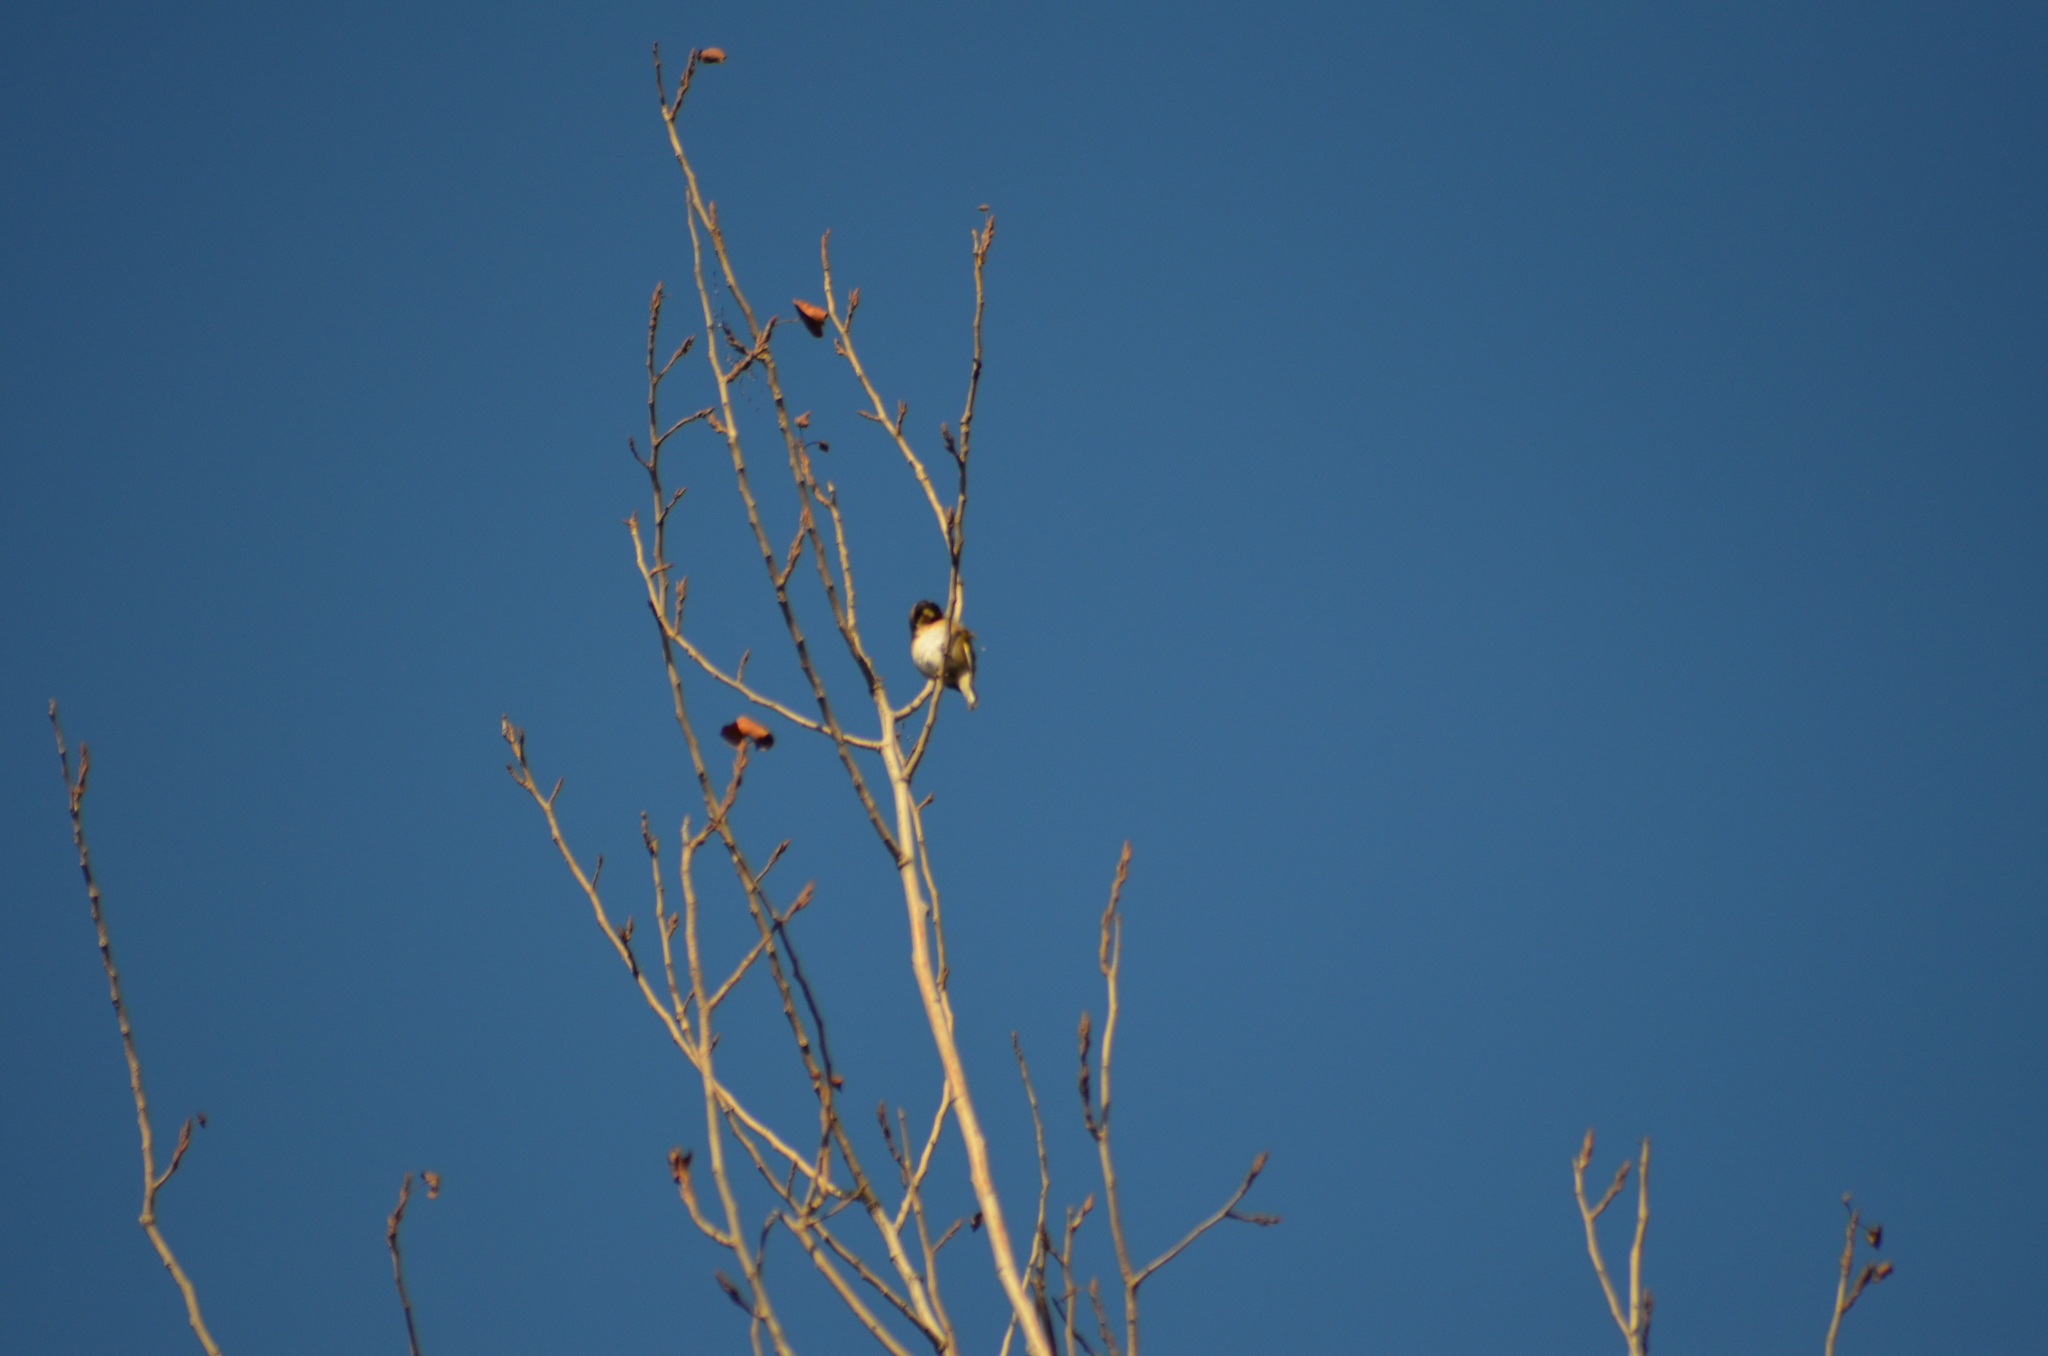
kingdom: Animalia
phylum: Chordata
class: Aves
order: Passeriformes
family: Fringillidae
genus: Carduelis
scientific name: Carduelis carduelis
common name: European goldfinch
